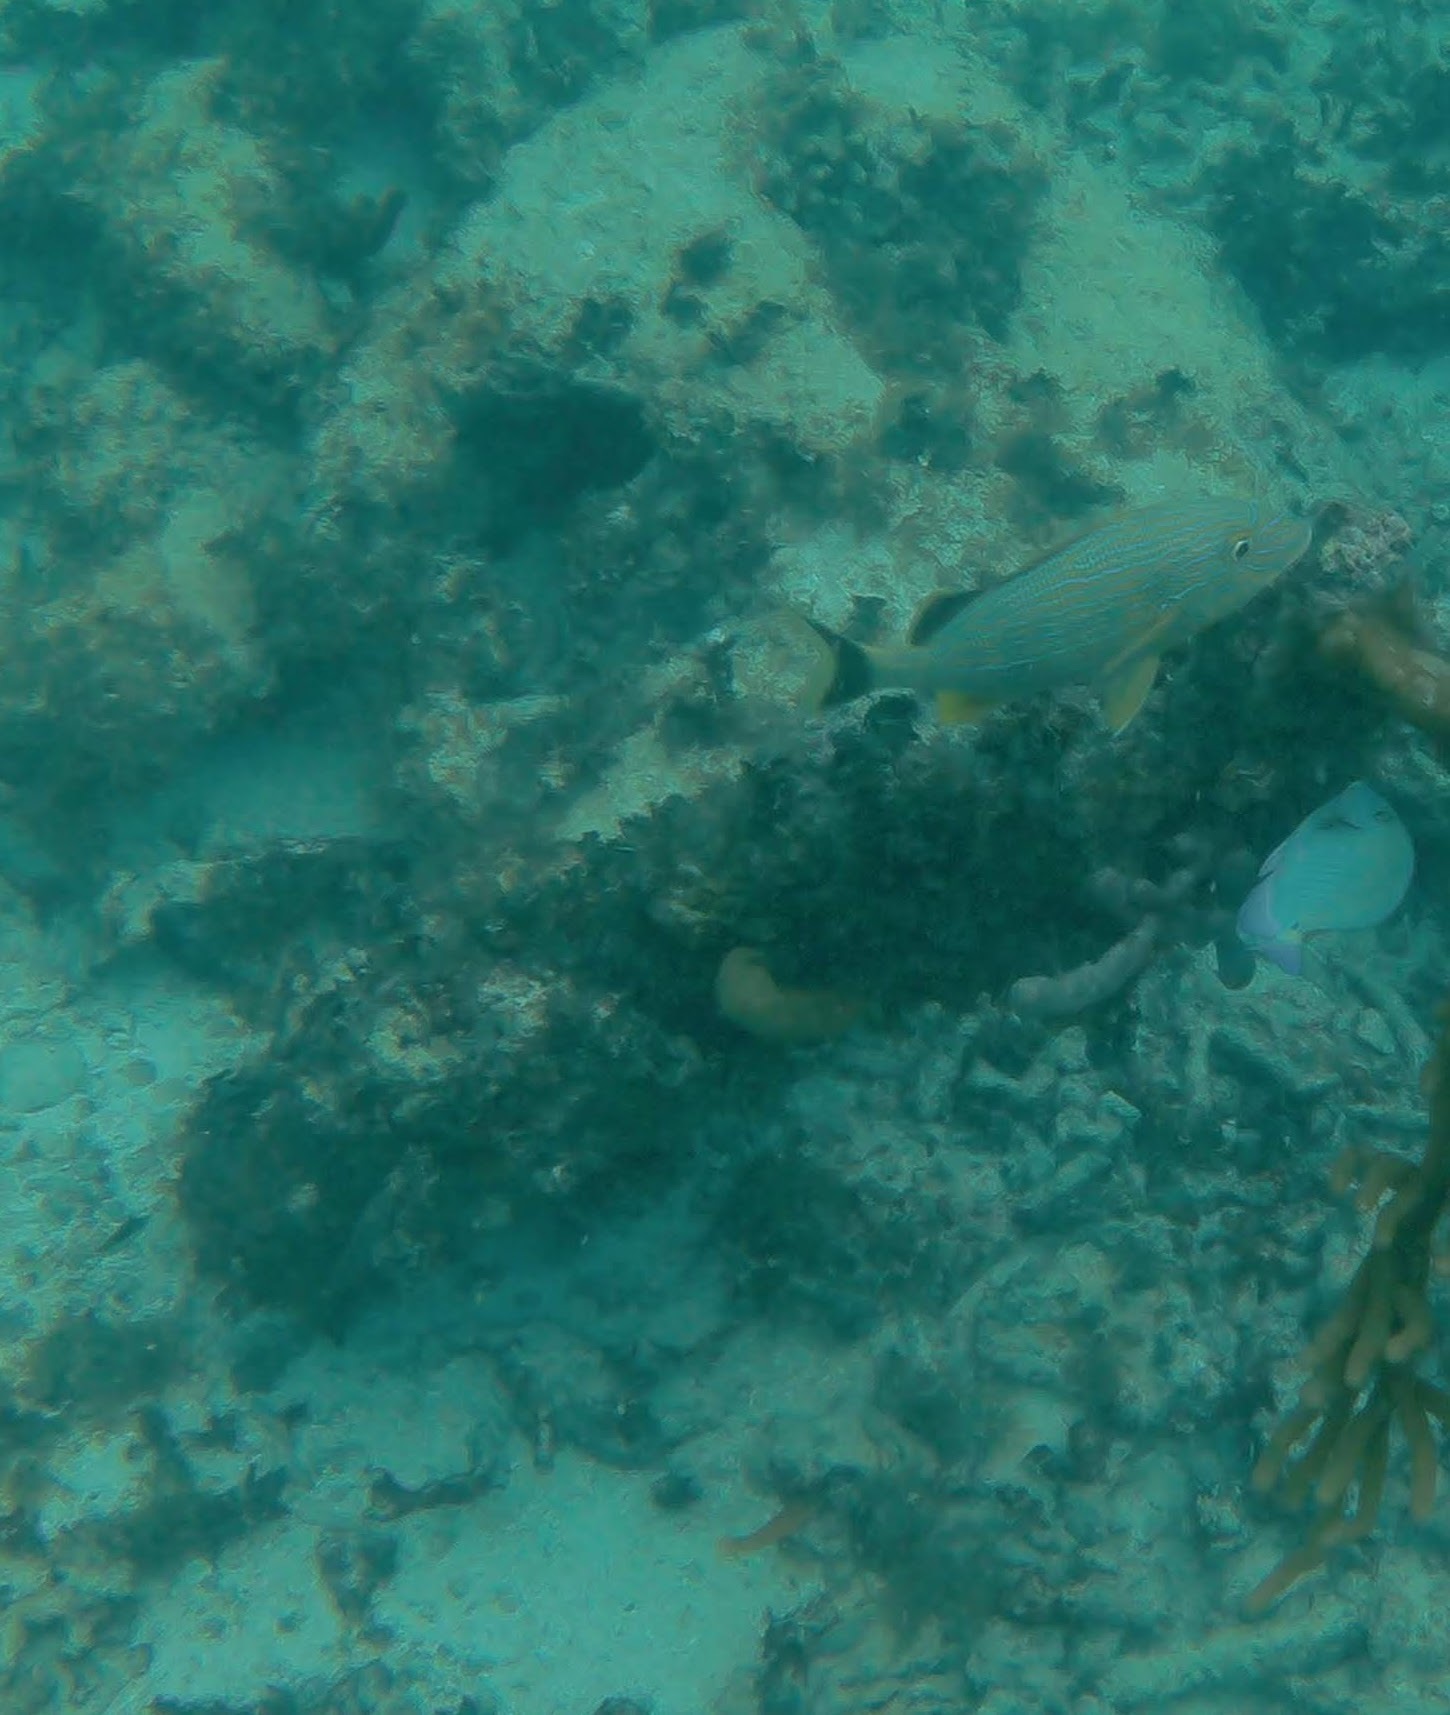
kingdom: Animalia
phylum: Chordata
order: Perciformes
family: Haemulidae
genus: Haemulon
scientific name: Haemulon sciurus
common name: Bluestriped grunt
